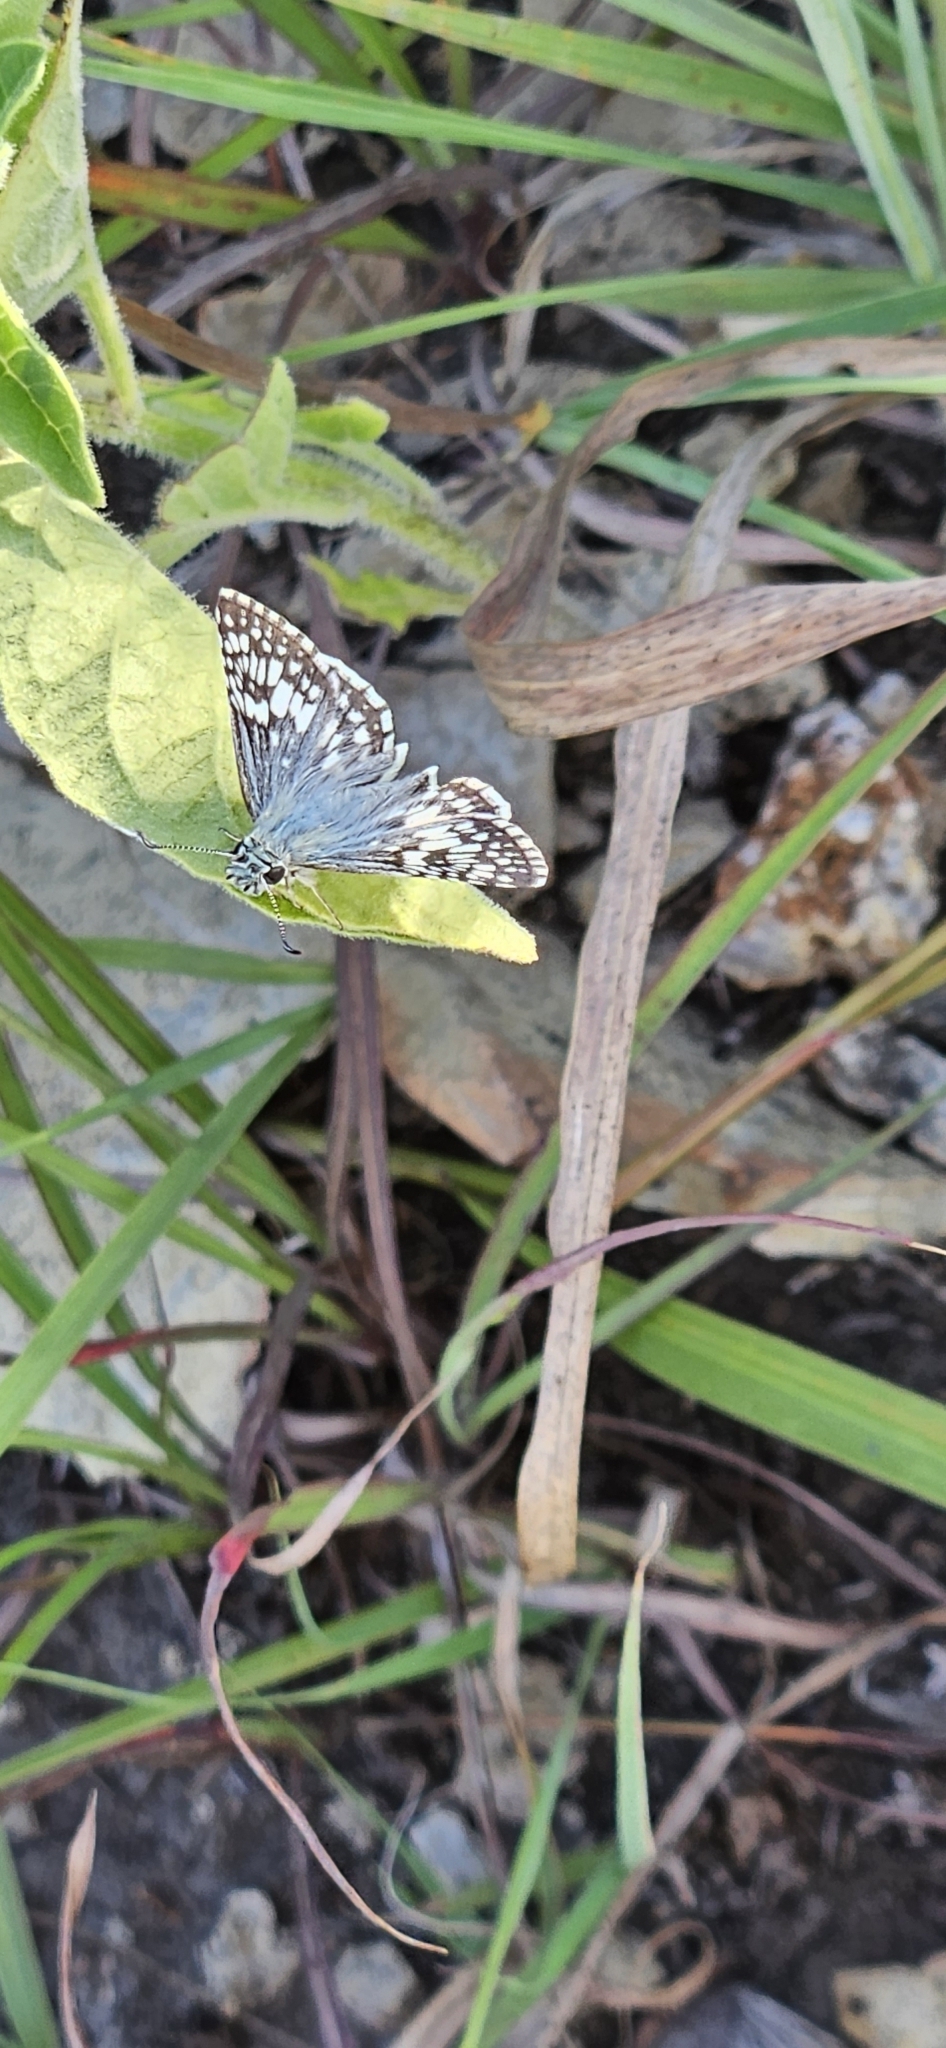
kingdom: Animalia
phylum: Arthropoda
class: Insecta
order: Lepidoptera
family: Hesperiidae
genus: Burnsius
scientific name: Burnsius communis
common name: Common checkered-skipper
